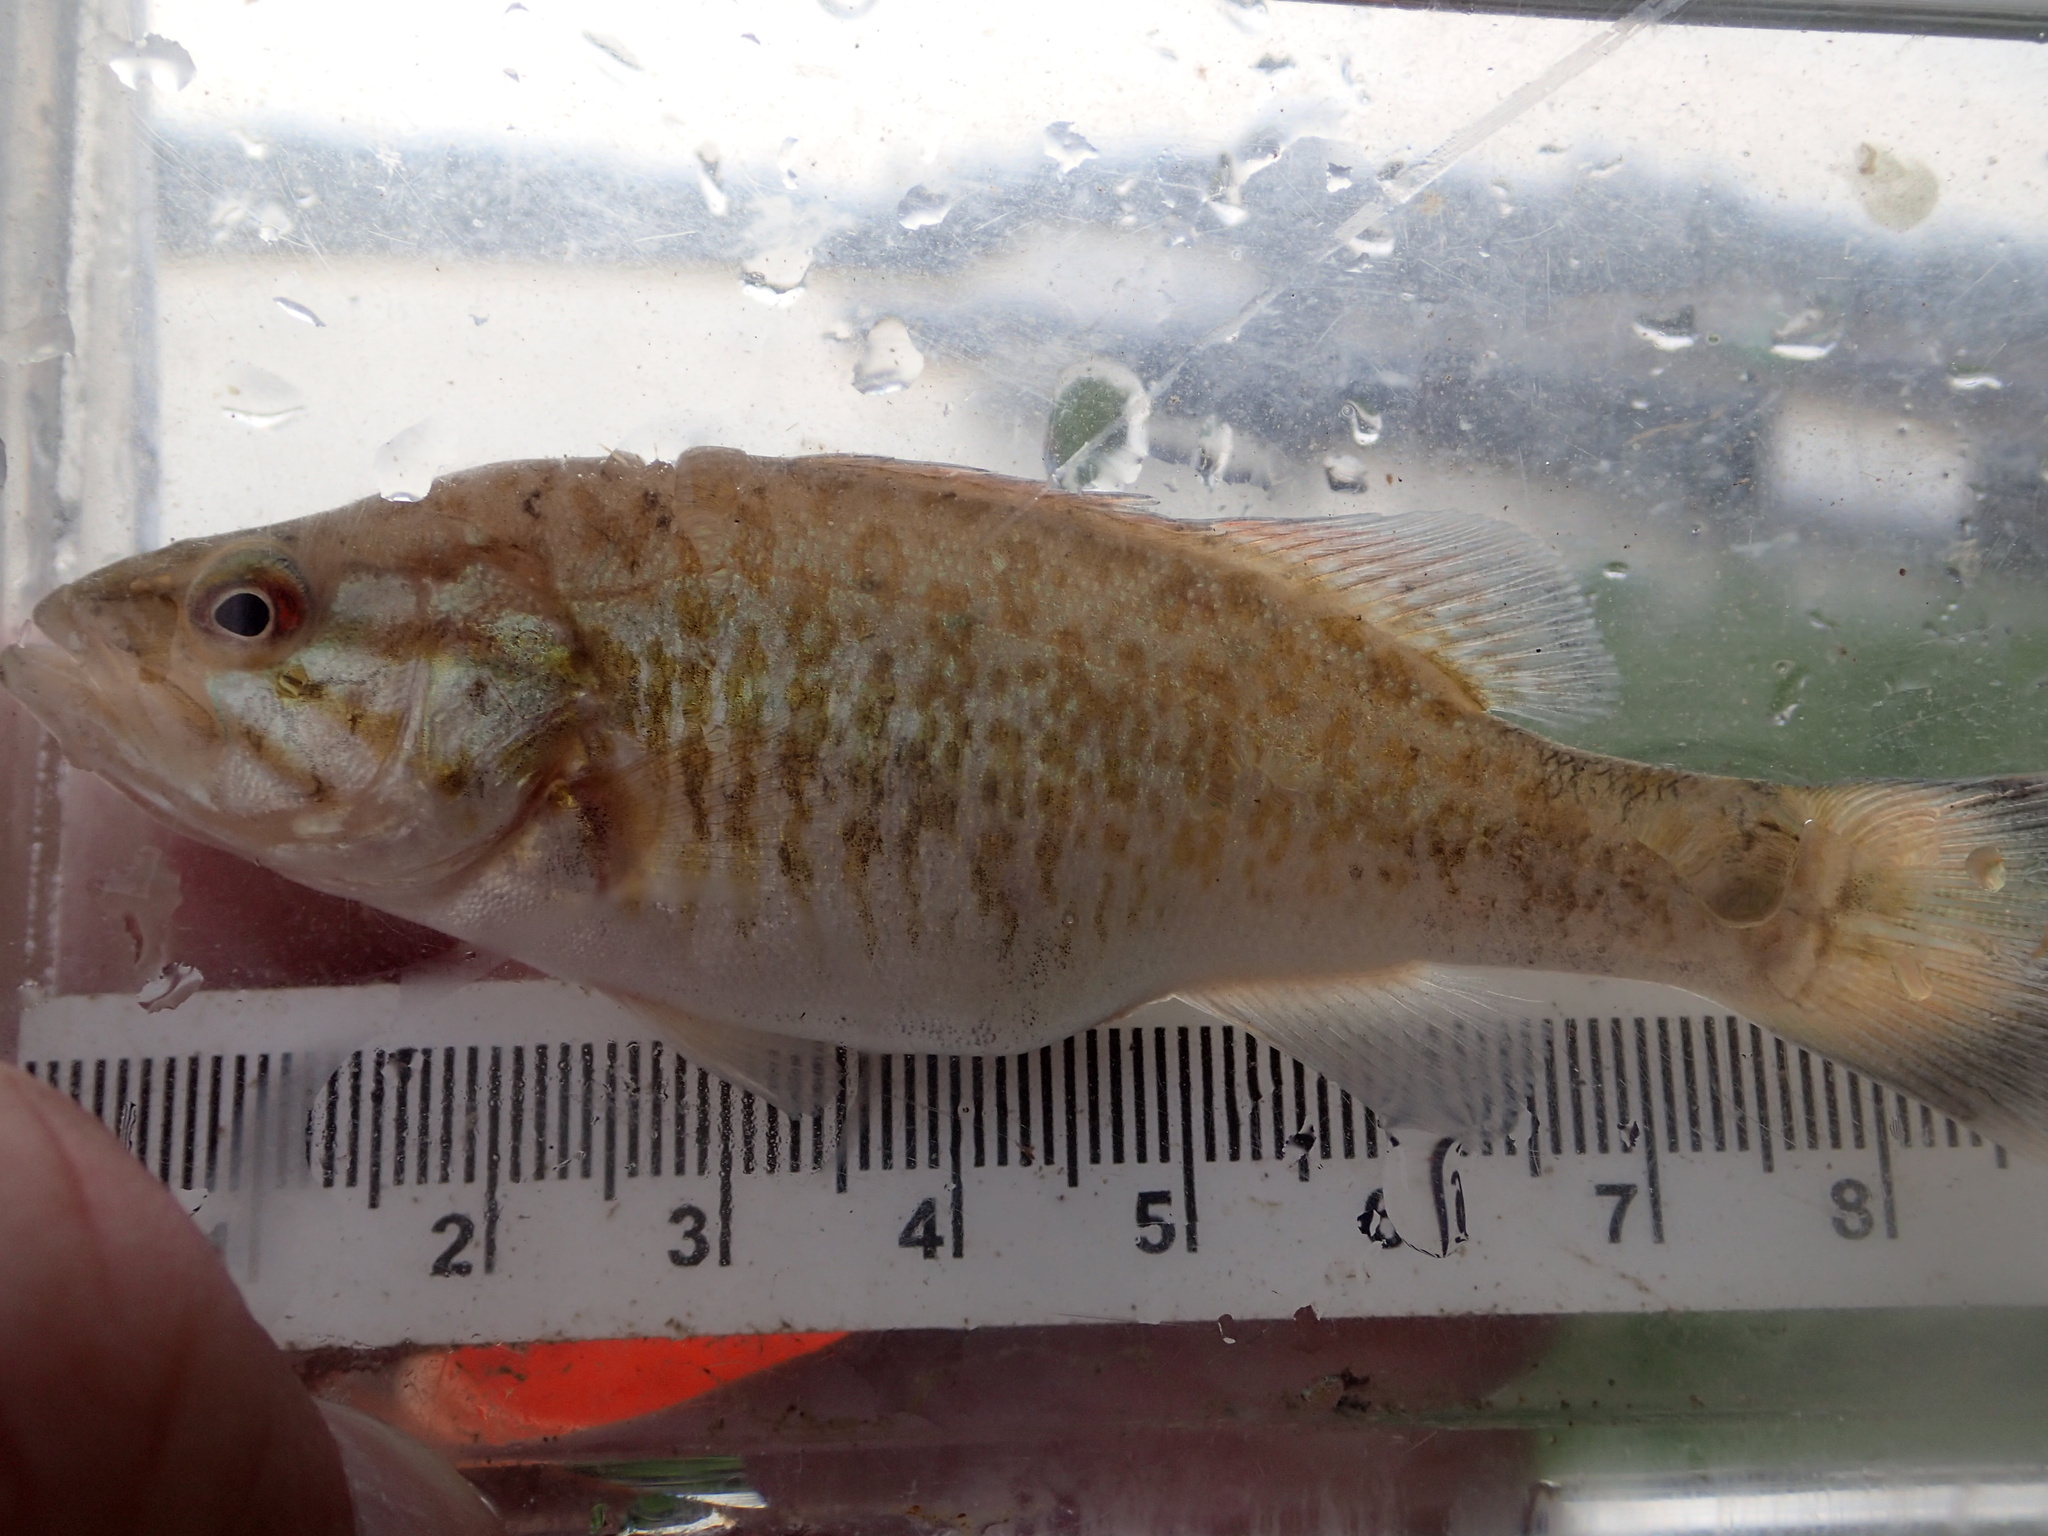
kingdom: Animalia
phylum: Chordata
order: Perciformes
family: Centrarchidae
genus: Micropterus
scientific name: Micropterus dolomieu
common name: Smallmouth bass
